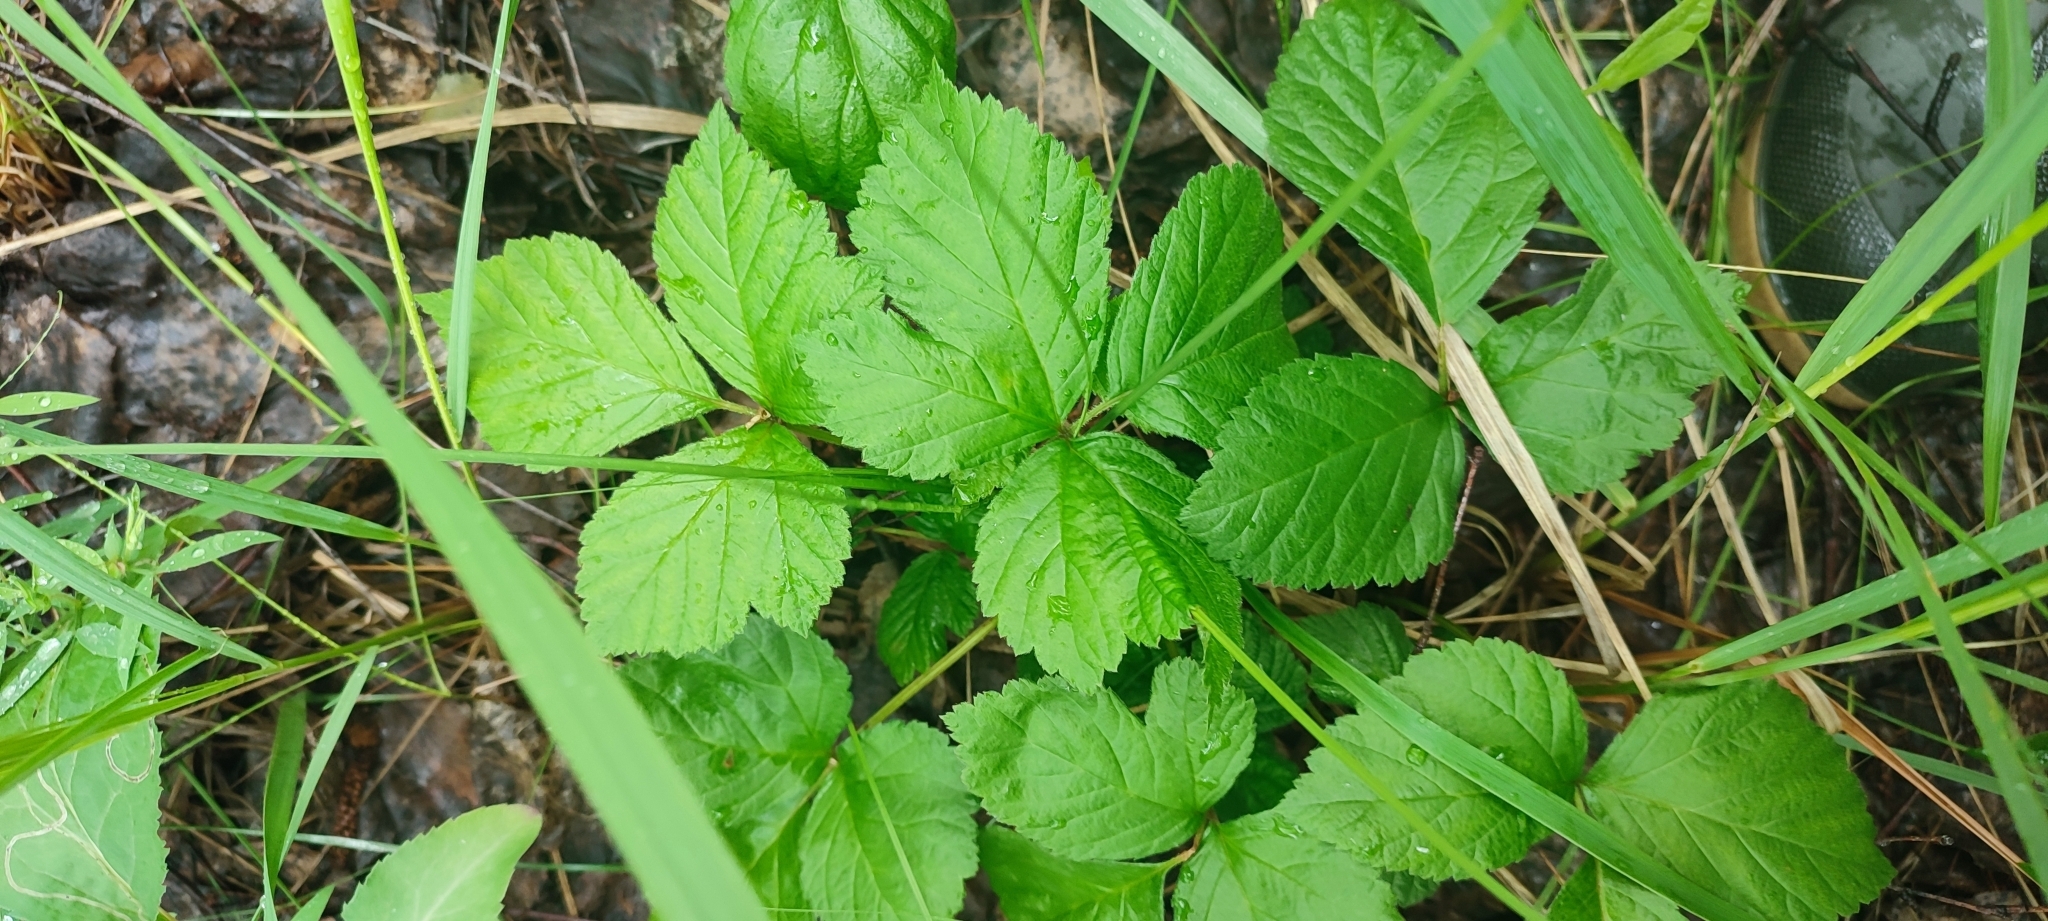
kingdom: Plantae
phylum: Tracheophyta
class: Magnoliopsida
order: Rosales
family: Rosaceae
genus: Rubus
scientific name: Rubus saxatilis
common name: Stone bramble
